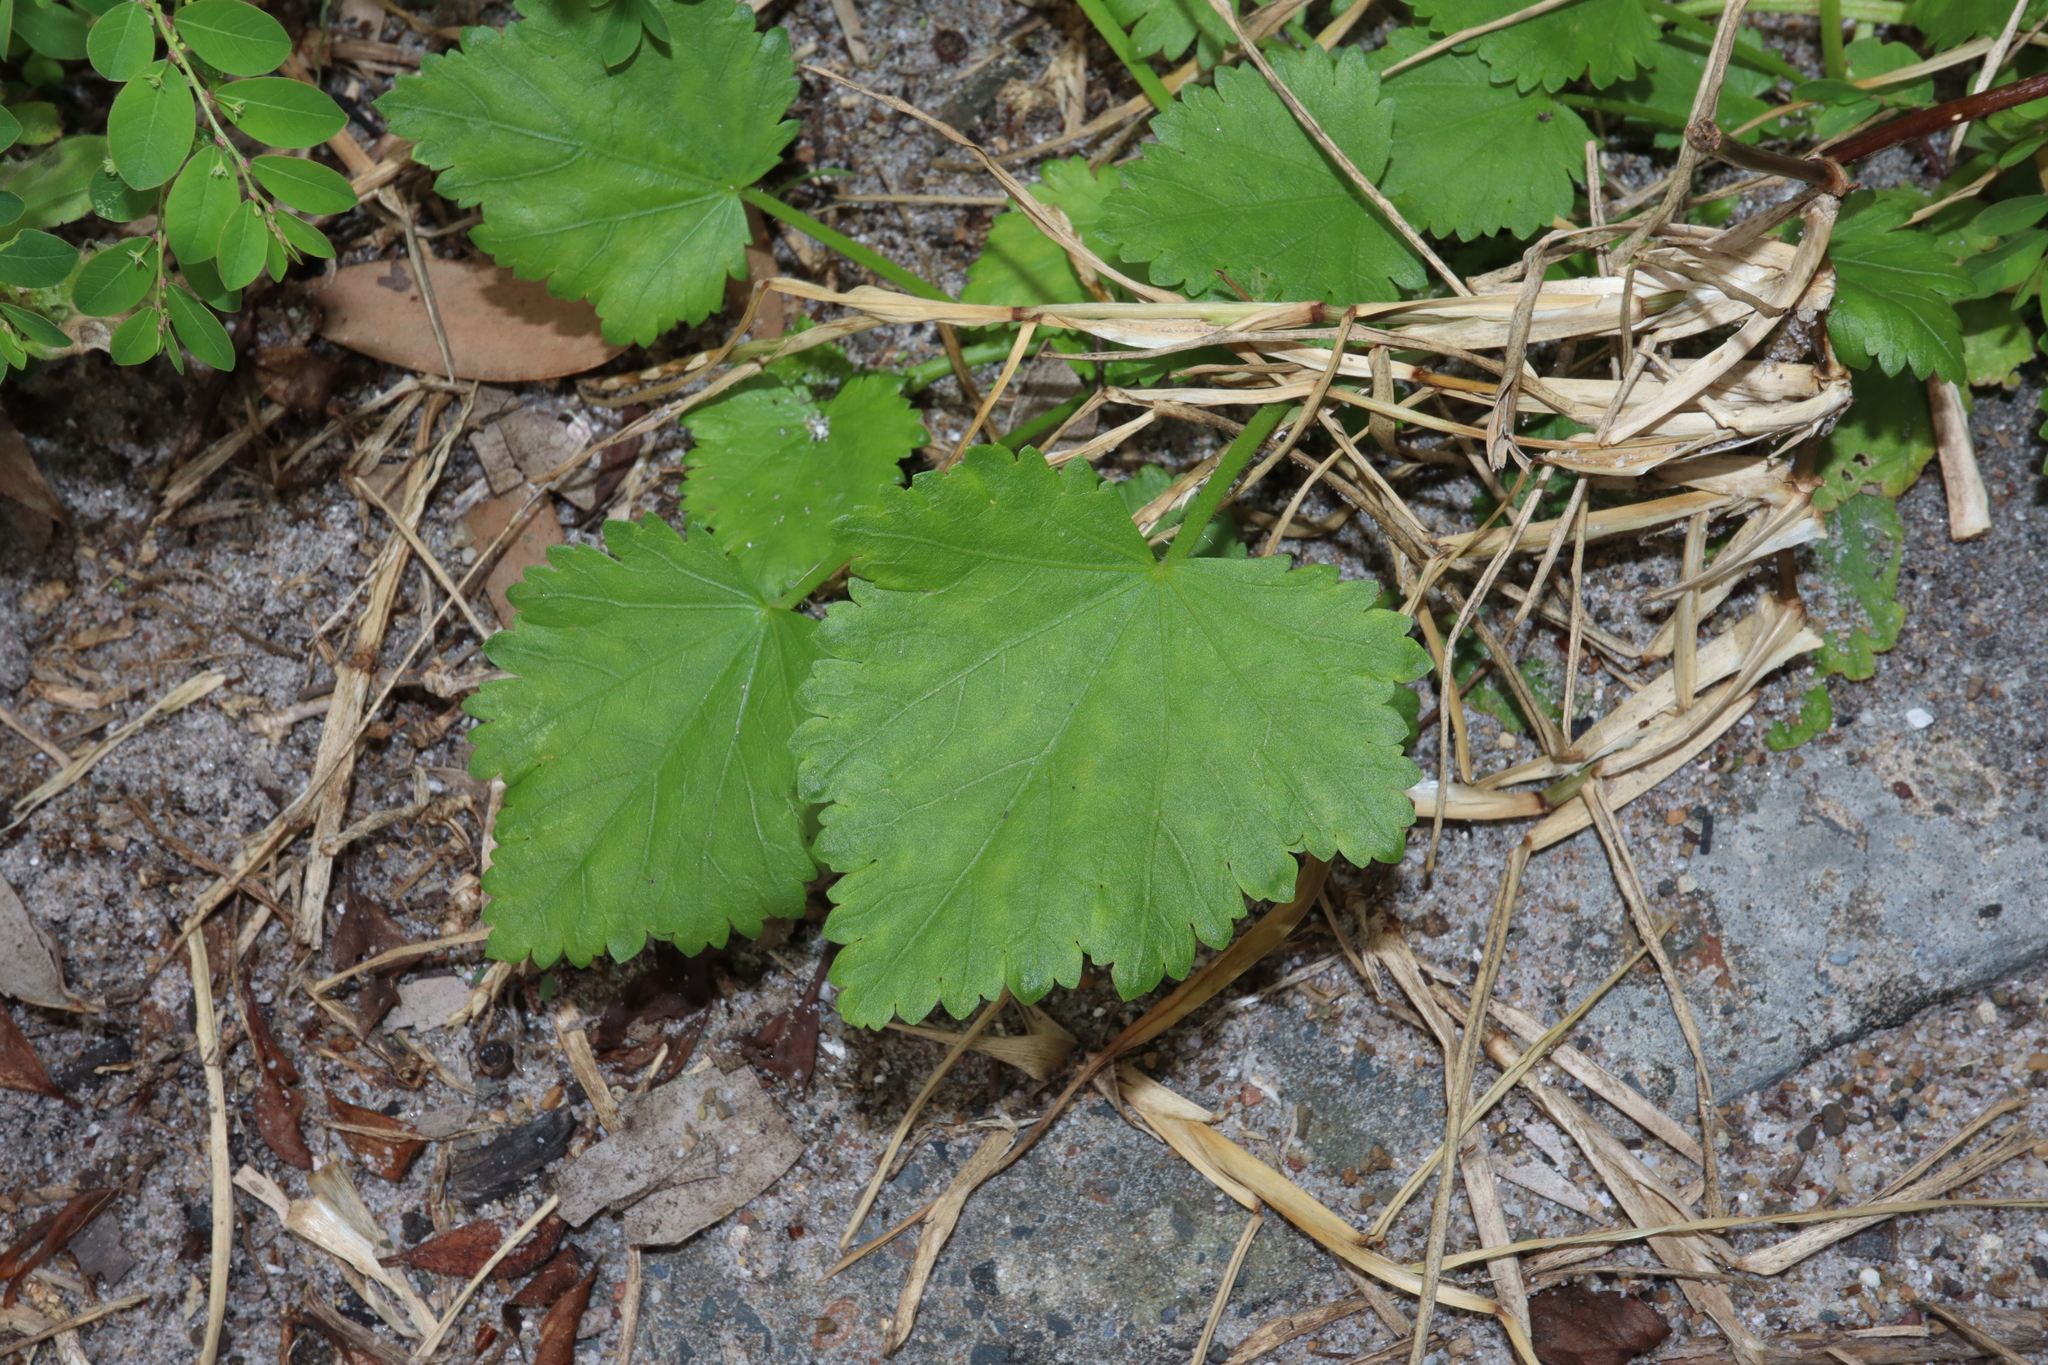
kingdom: Plantae
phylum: Tracheophyta
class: Magnoliopsida
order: Malvales
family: Malvaceae
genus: Modiola
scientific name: Modiola caroliniana
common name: Carolina bristlemallow
